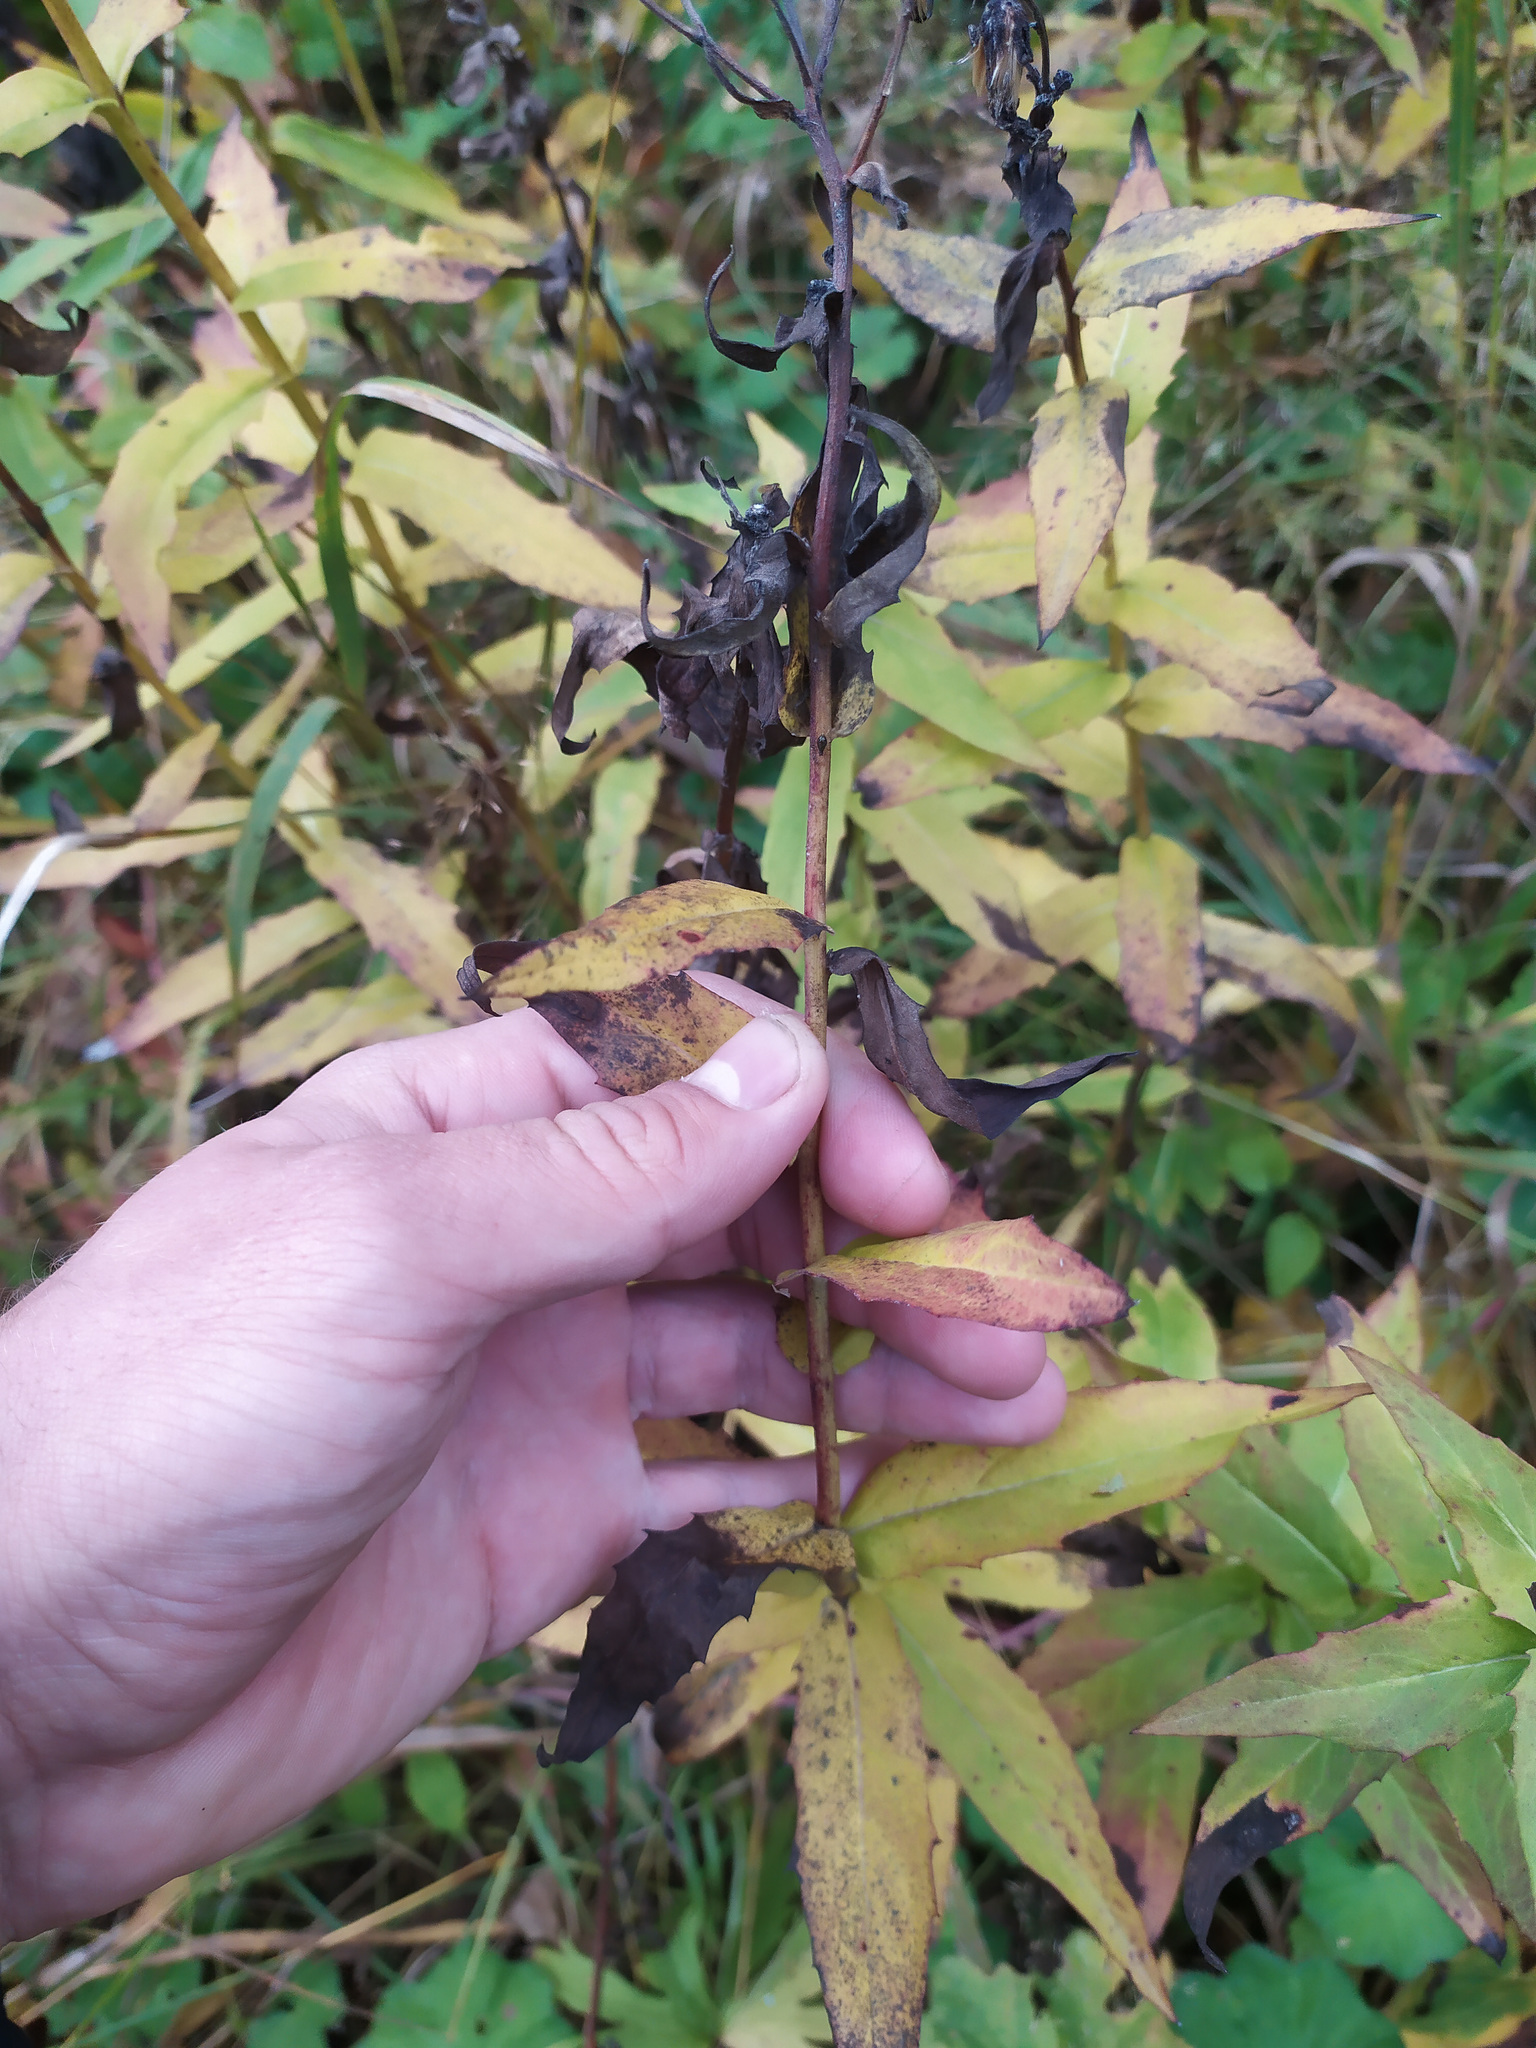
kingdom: Plantae
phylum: Tracheophyta
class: Magnoliopsida
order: Asterales
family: Asteraceae
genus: Pentanema
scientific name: Pentanema salicinum
